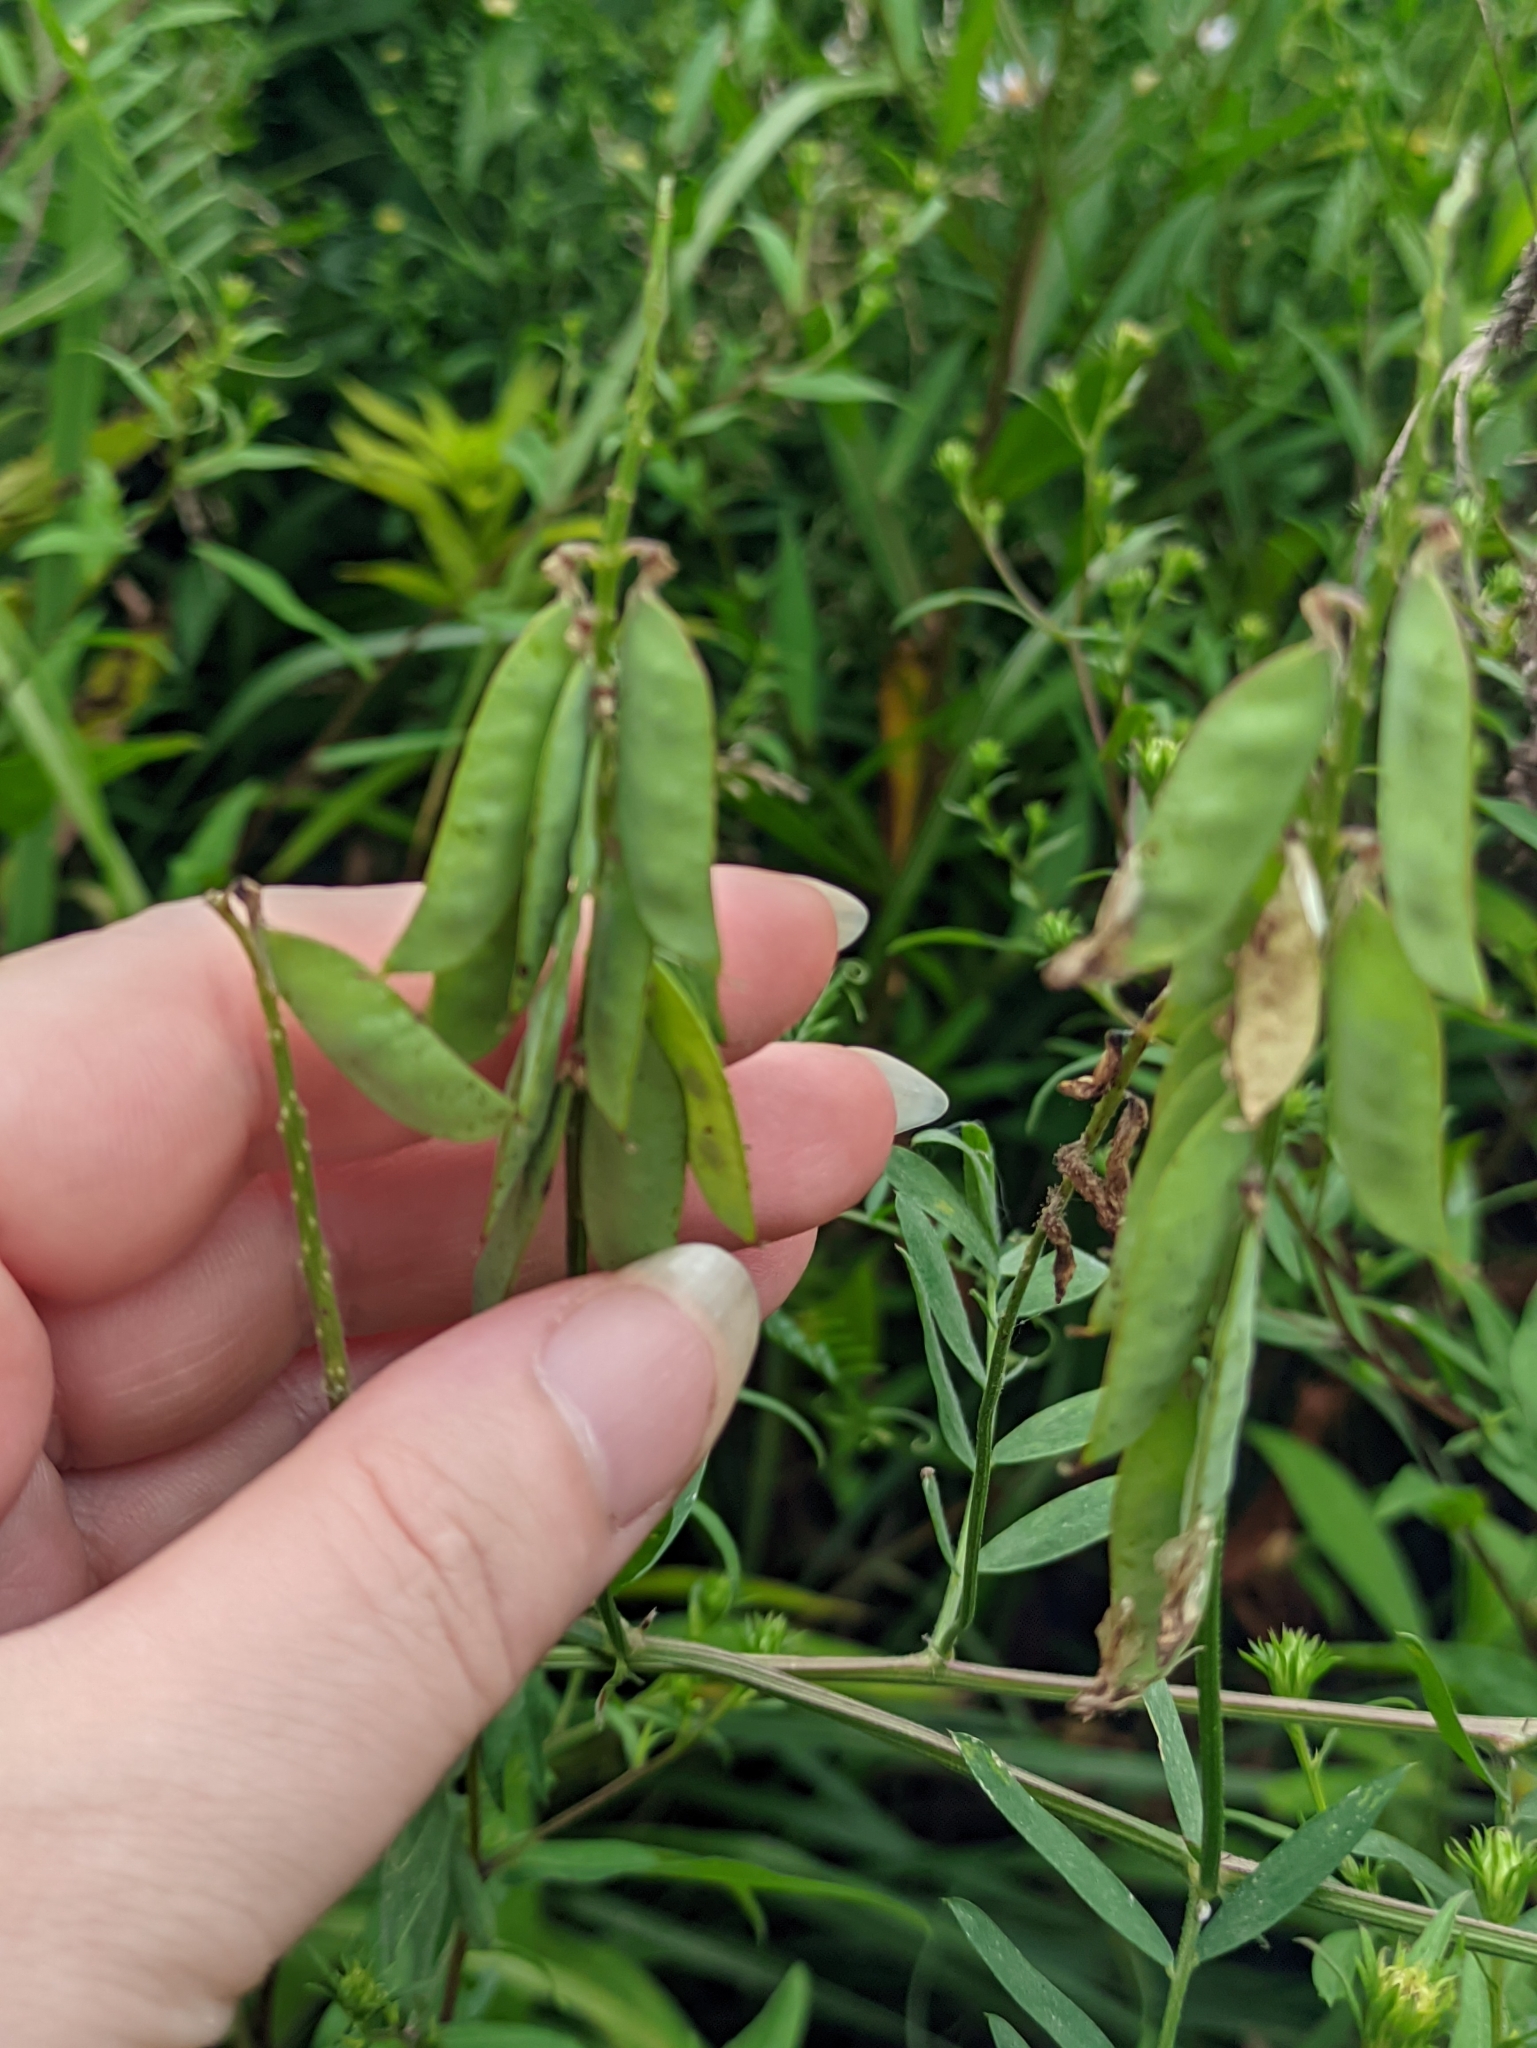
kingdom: Plantae
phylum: Tracheophyta
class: Magnoliopsida
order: Fabales
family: Fabaceae
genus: Vicia
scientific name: Vicia cracca
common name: Bird vetch
